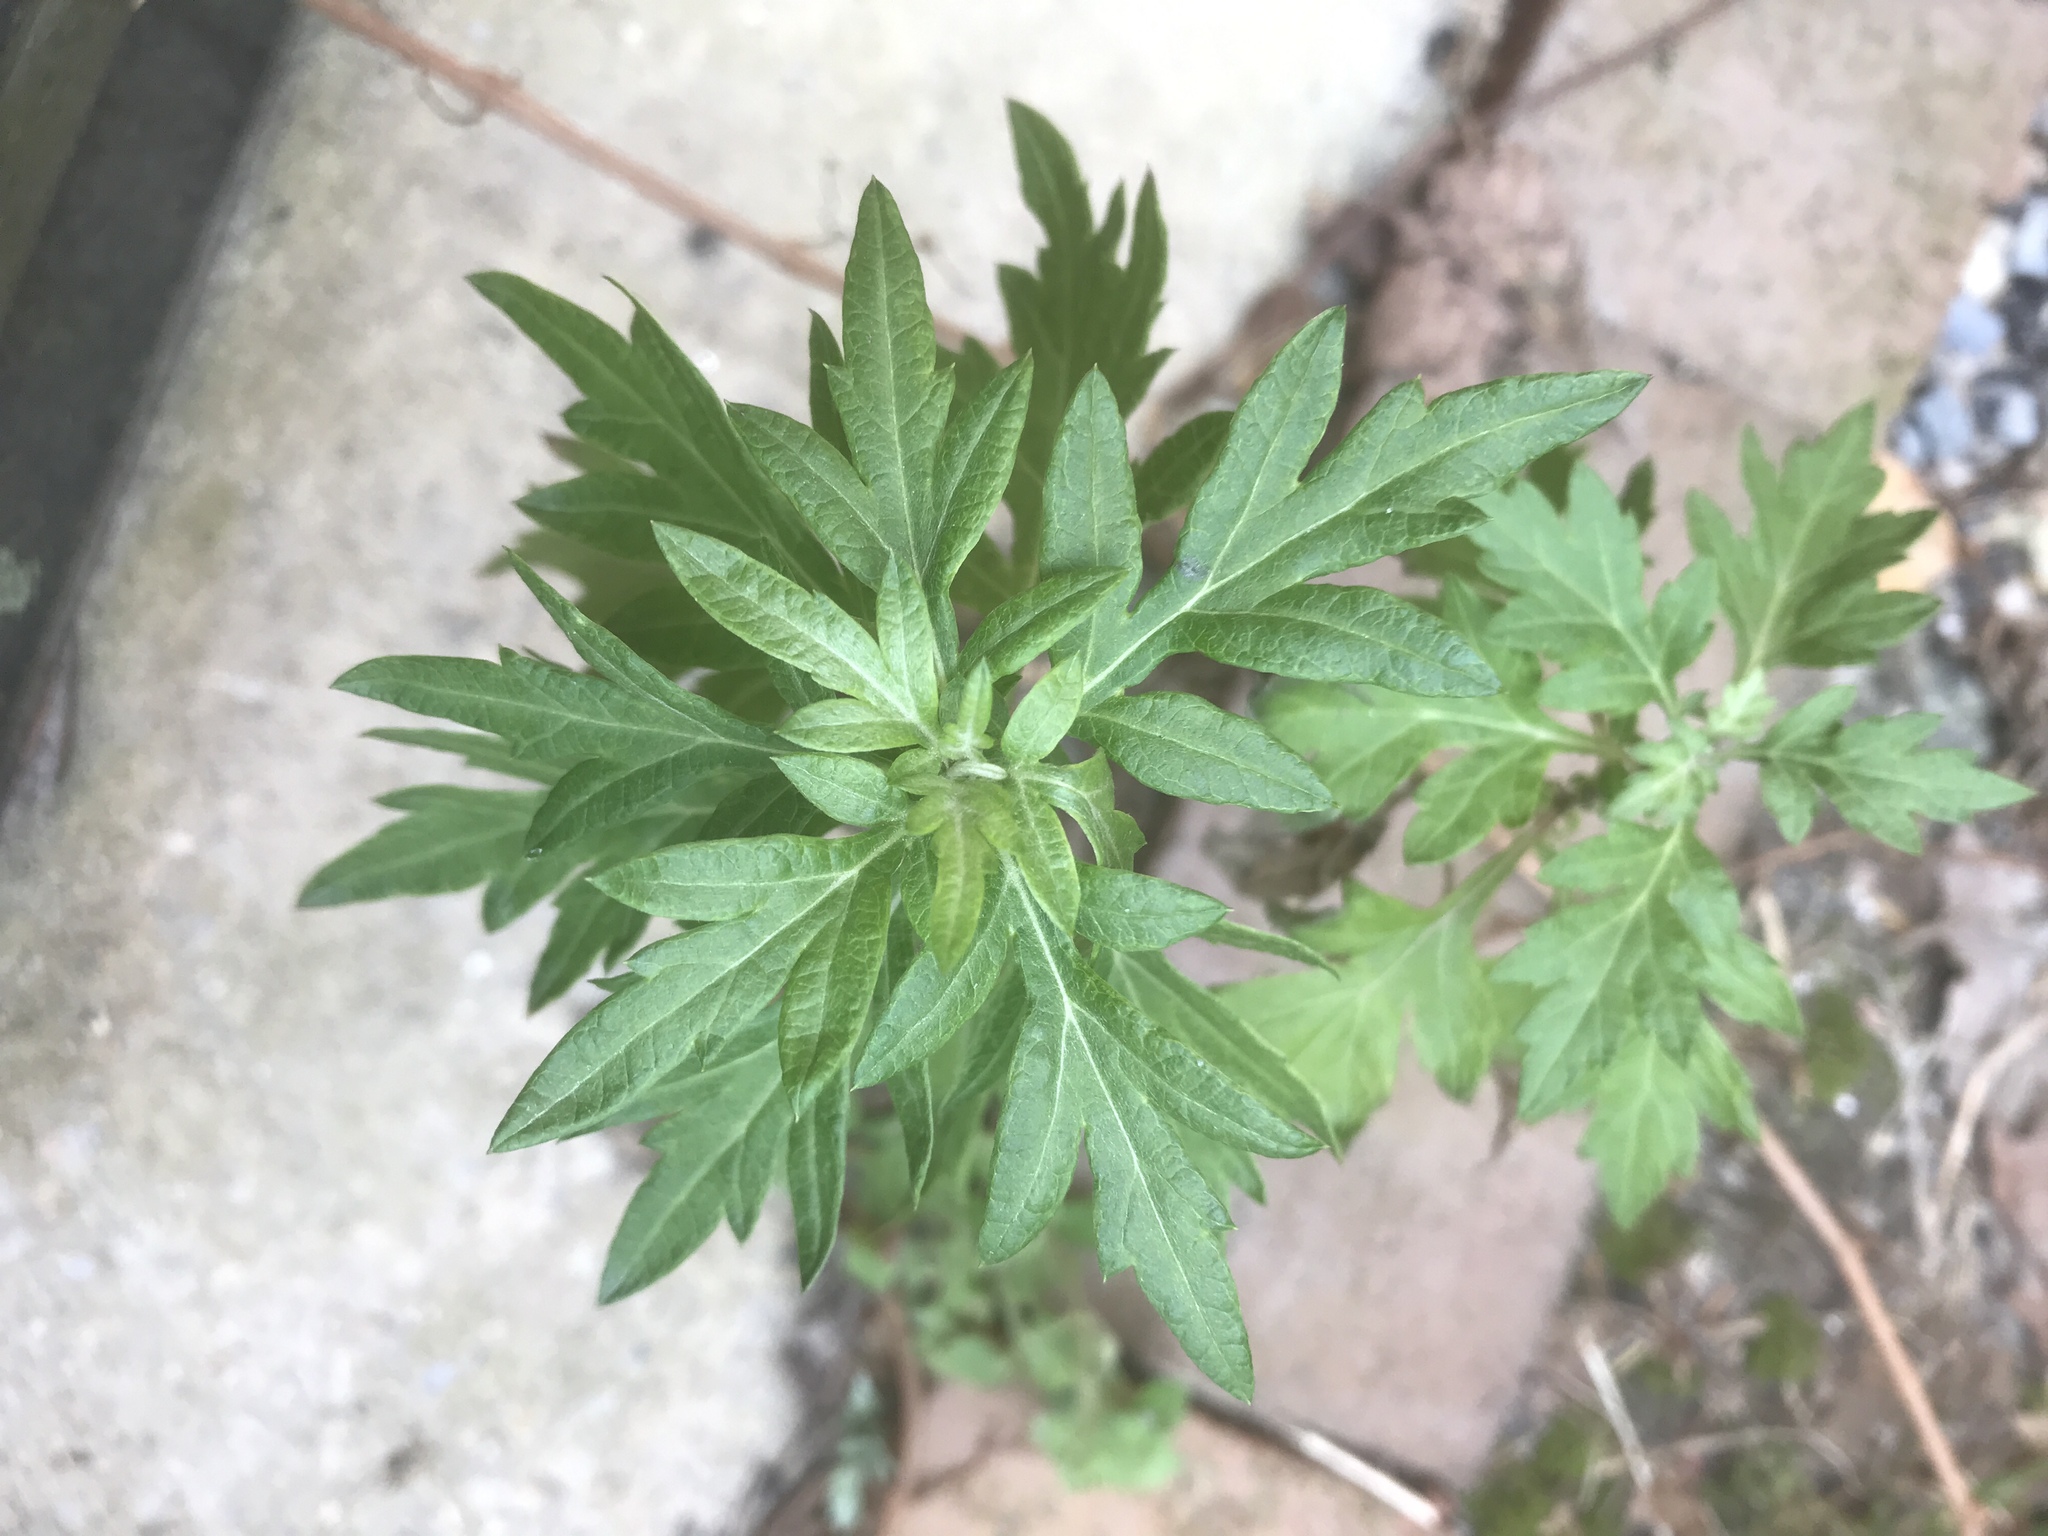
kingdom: Plantae
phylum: Tracheophyta
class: Magnoliopsida
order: Asterales
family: Asteraceae
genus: Artemisia
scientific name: Artemisia vulgaris
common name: Mugwort
